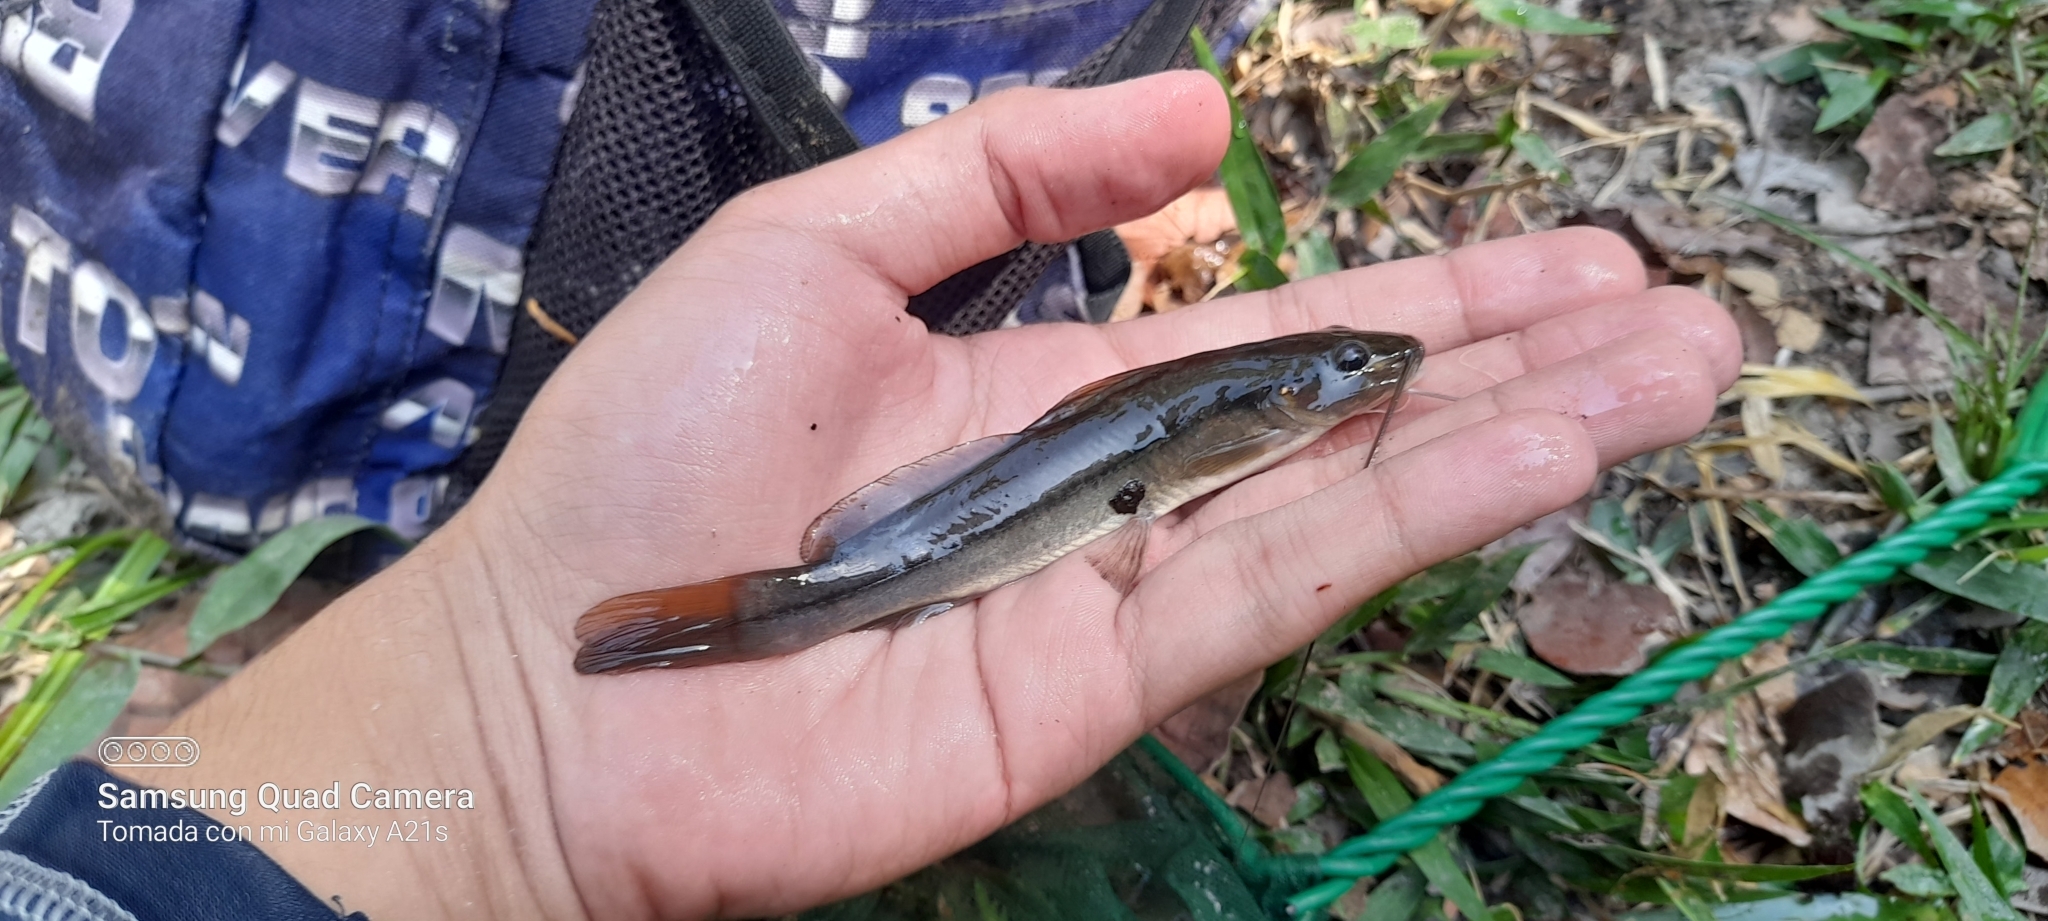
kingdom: Animalia
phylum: Chordata
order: Siluriformes
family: Heptapteridae
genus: Rhamdia
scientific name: Rhamdia guatemalensis
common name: Pale catfish
